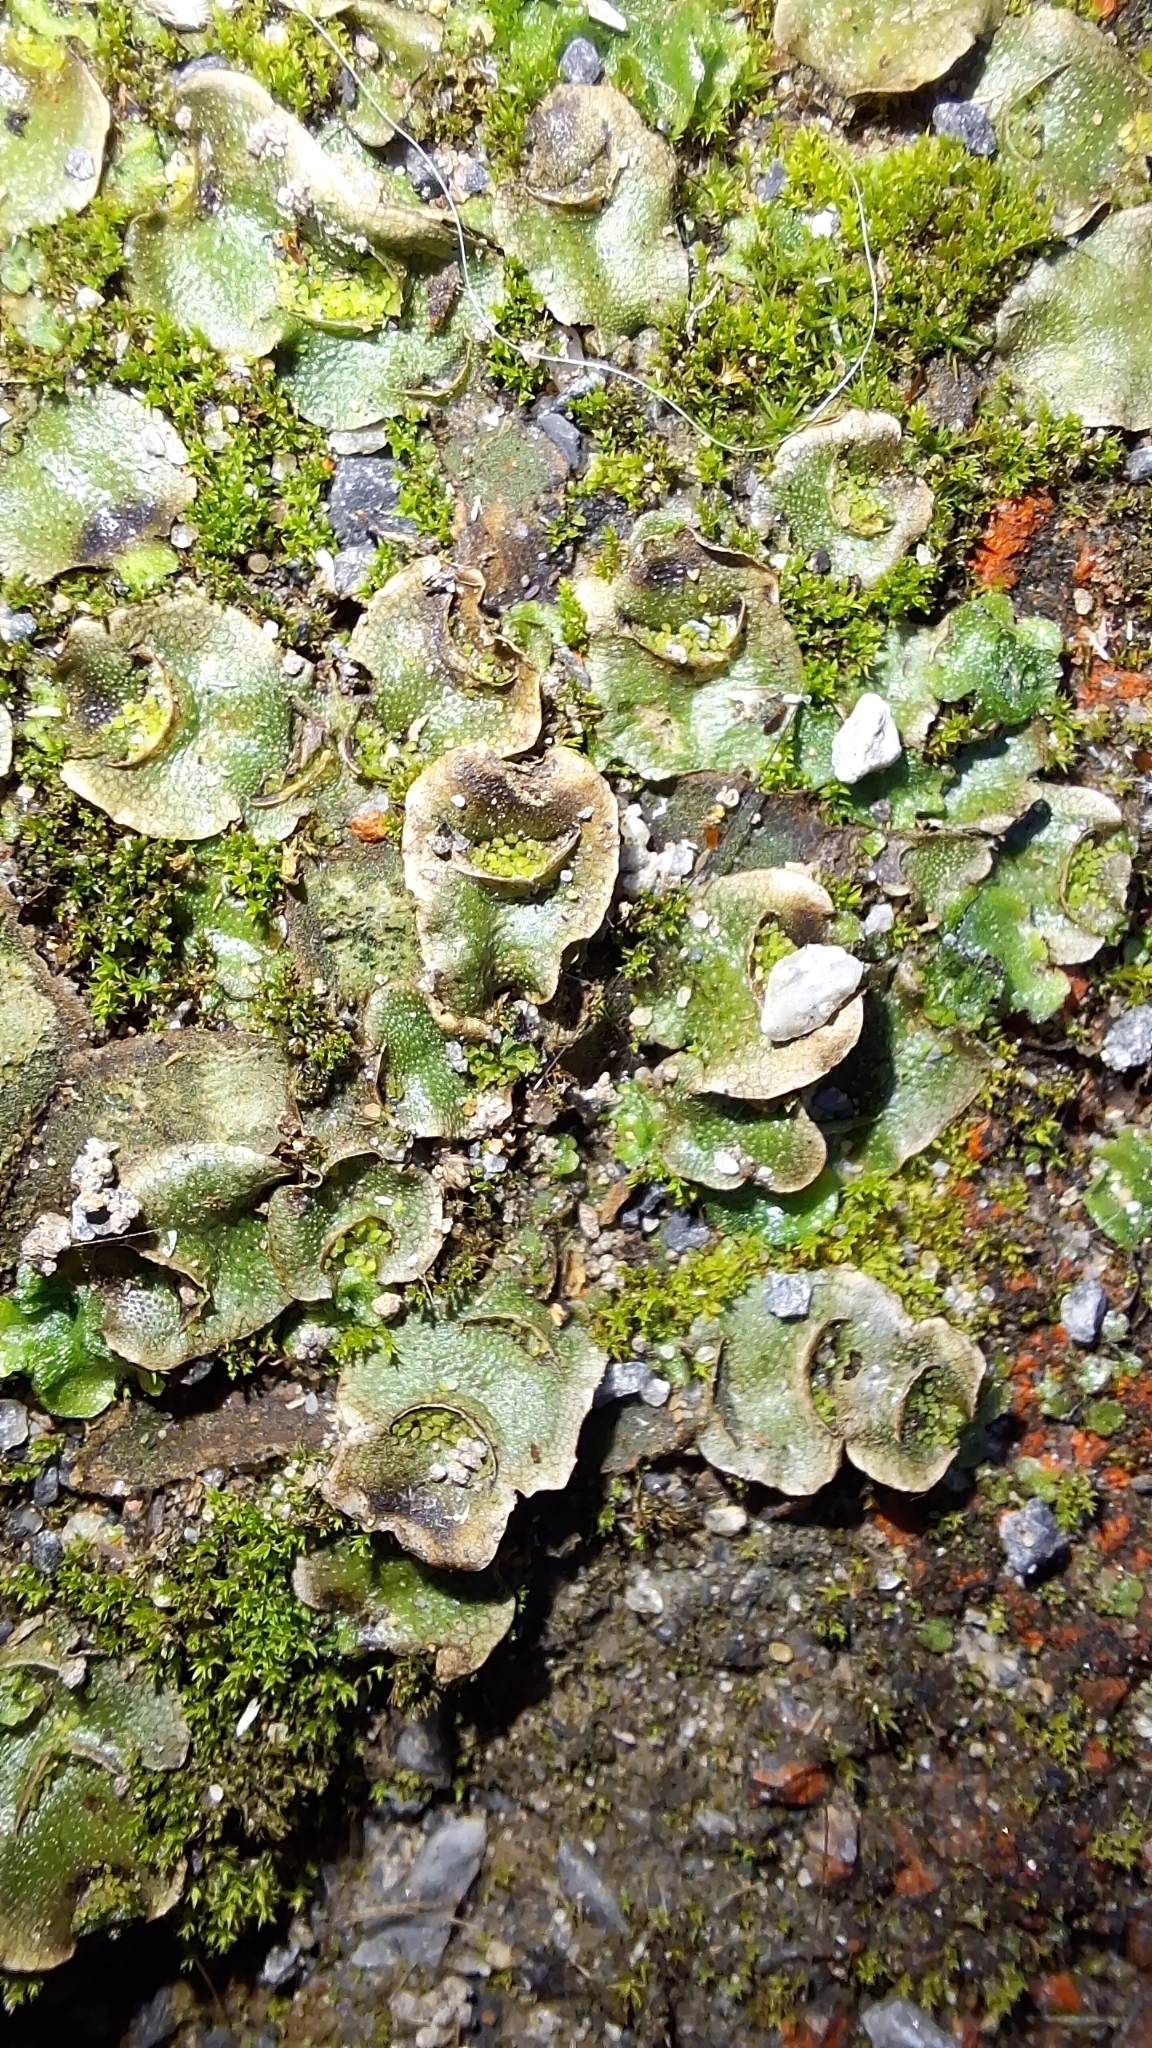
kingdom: Plantae
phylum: Marchantiophyta
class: Marchantiopsida
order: Lunulariales
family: Lunulariaceae
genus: Lunularia
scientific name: Lunularia cruciata
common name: Crescent-cup liverwort
